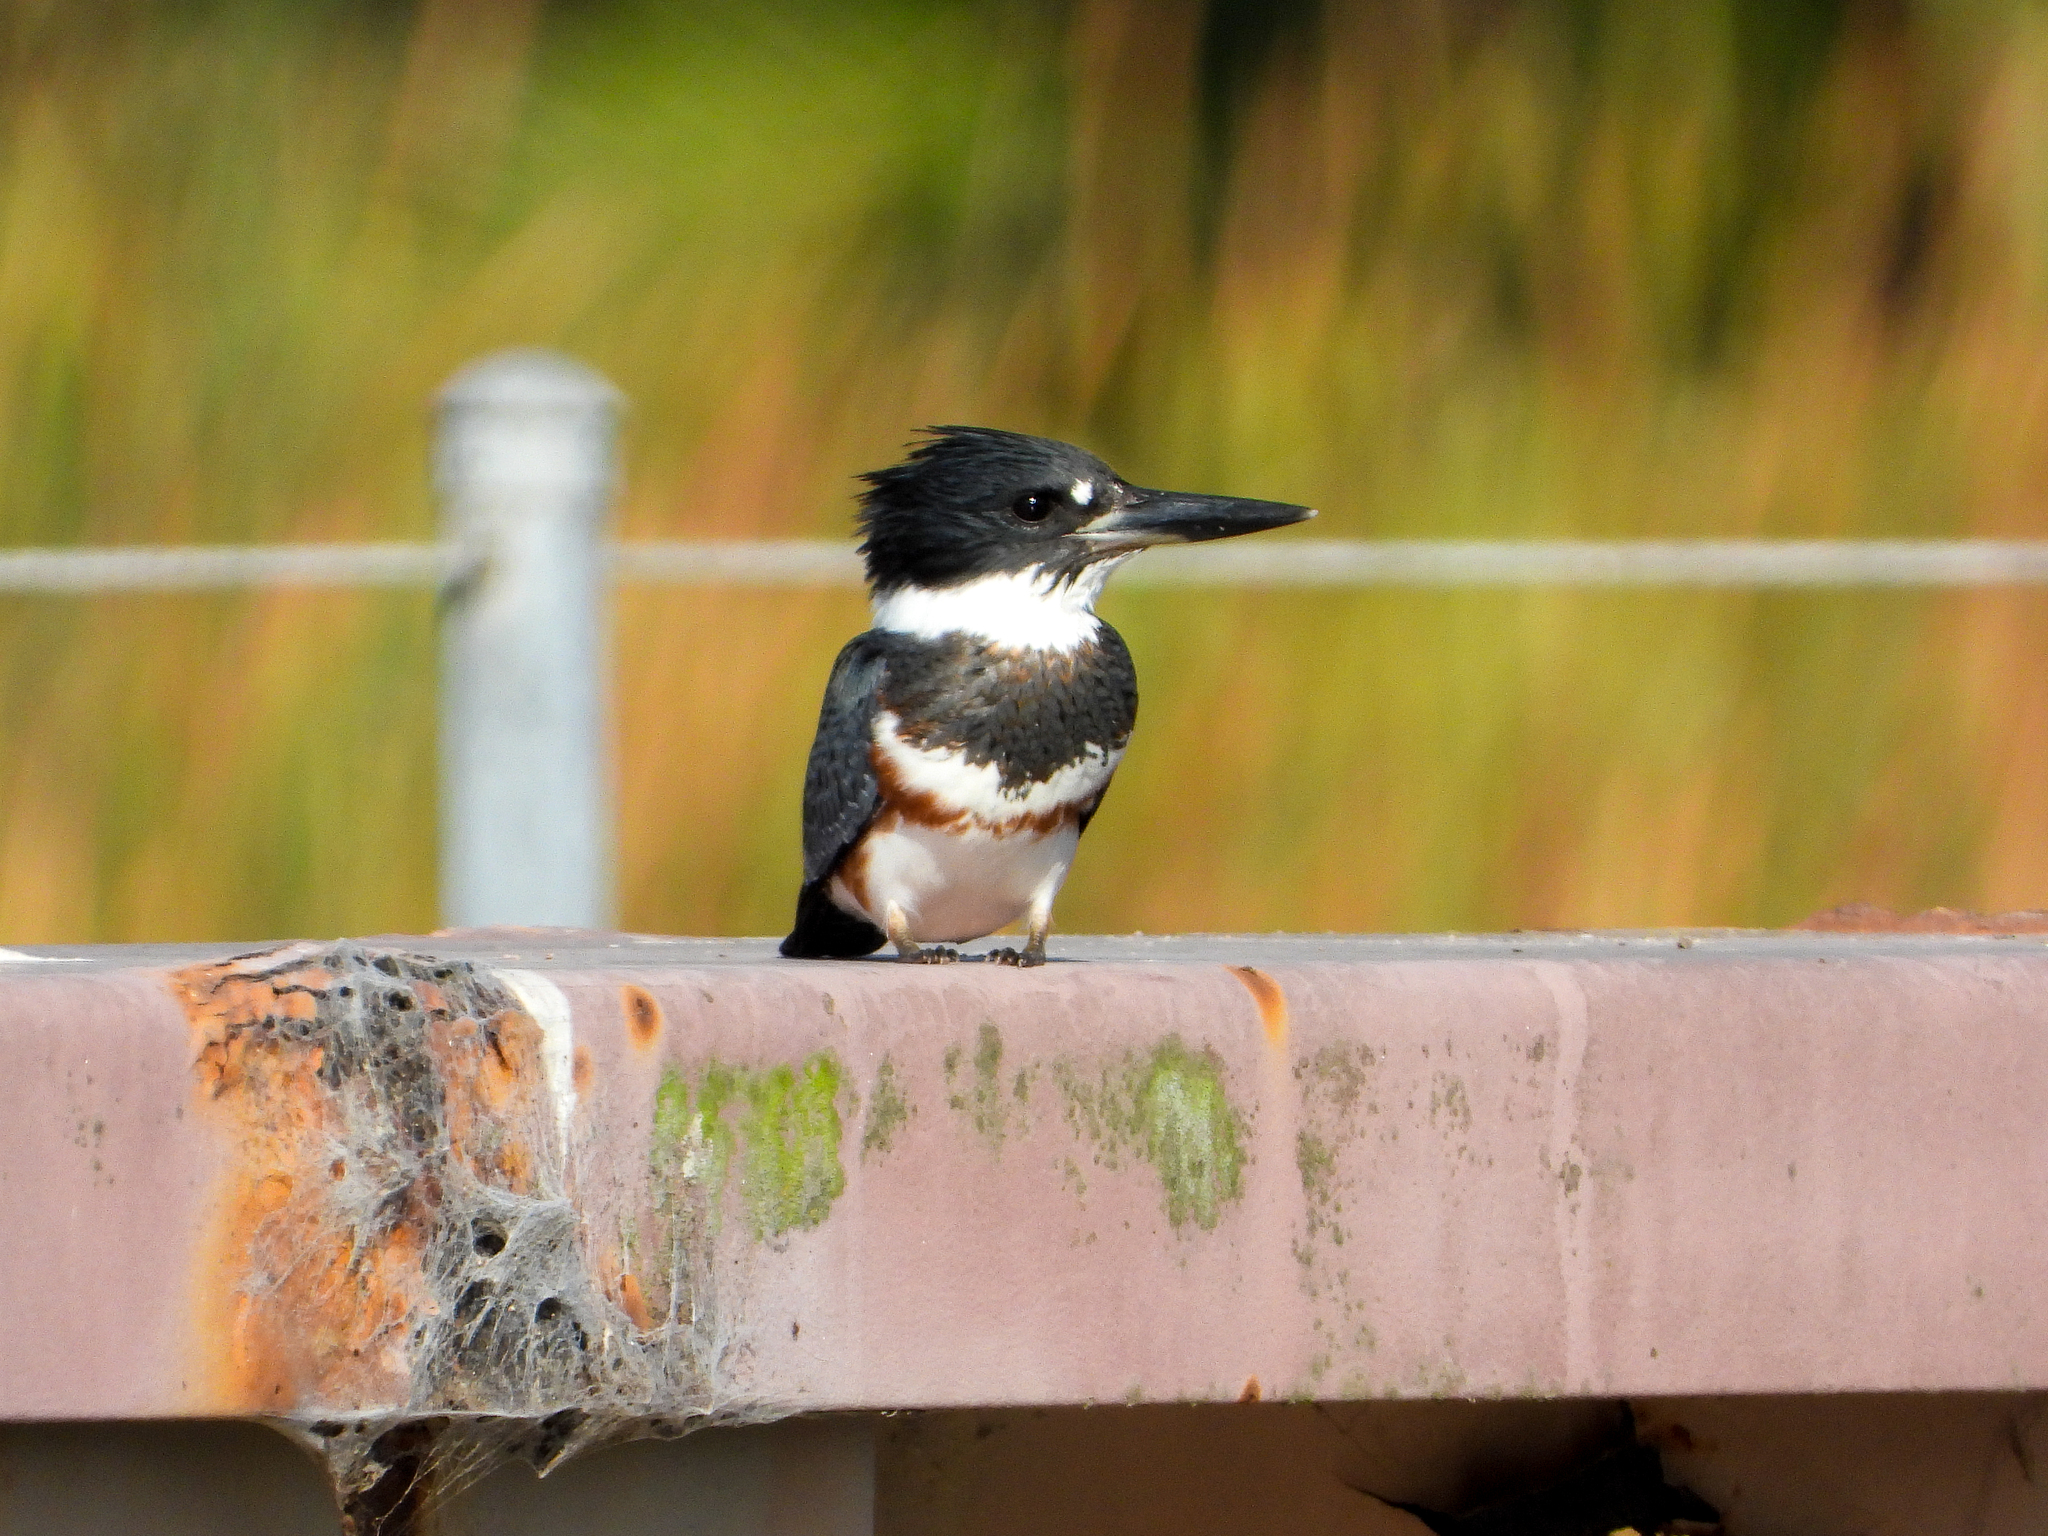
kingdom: Animalia
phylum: Chordata
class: Aves
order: Coraciiformes
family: Alcedinidae
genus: Megaceryle
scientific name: Megaceryle alcyon
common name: Belted kingfisher
